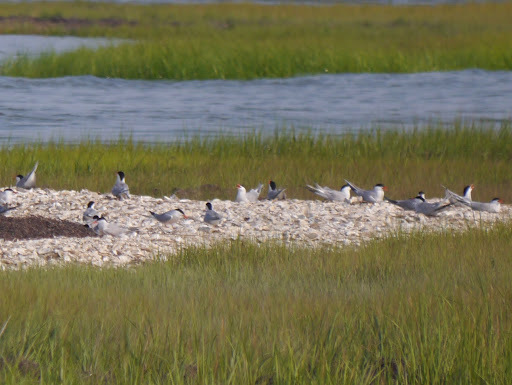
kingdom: Animalia
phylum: Chordata
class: Aves
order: Charadriiformes
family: Laridae
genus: Sterna
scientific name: Sterna hirundo
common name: Common tern
